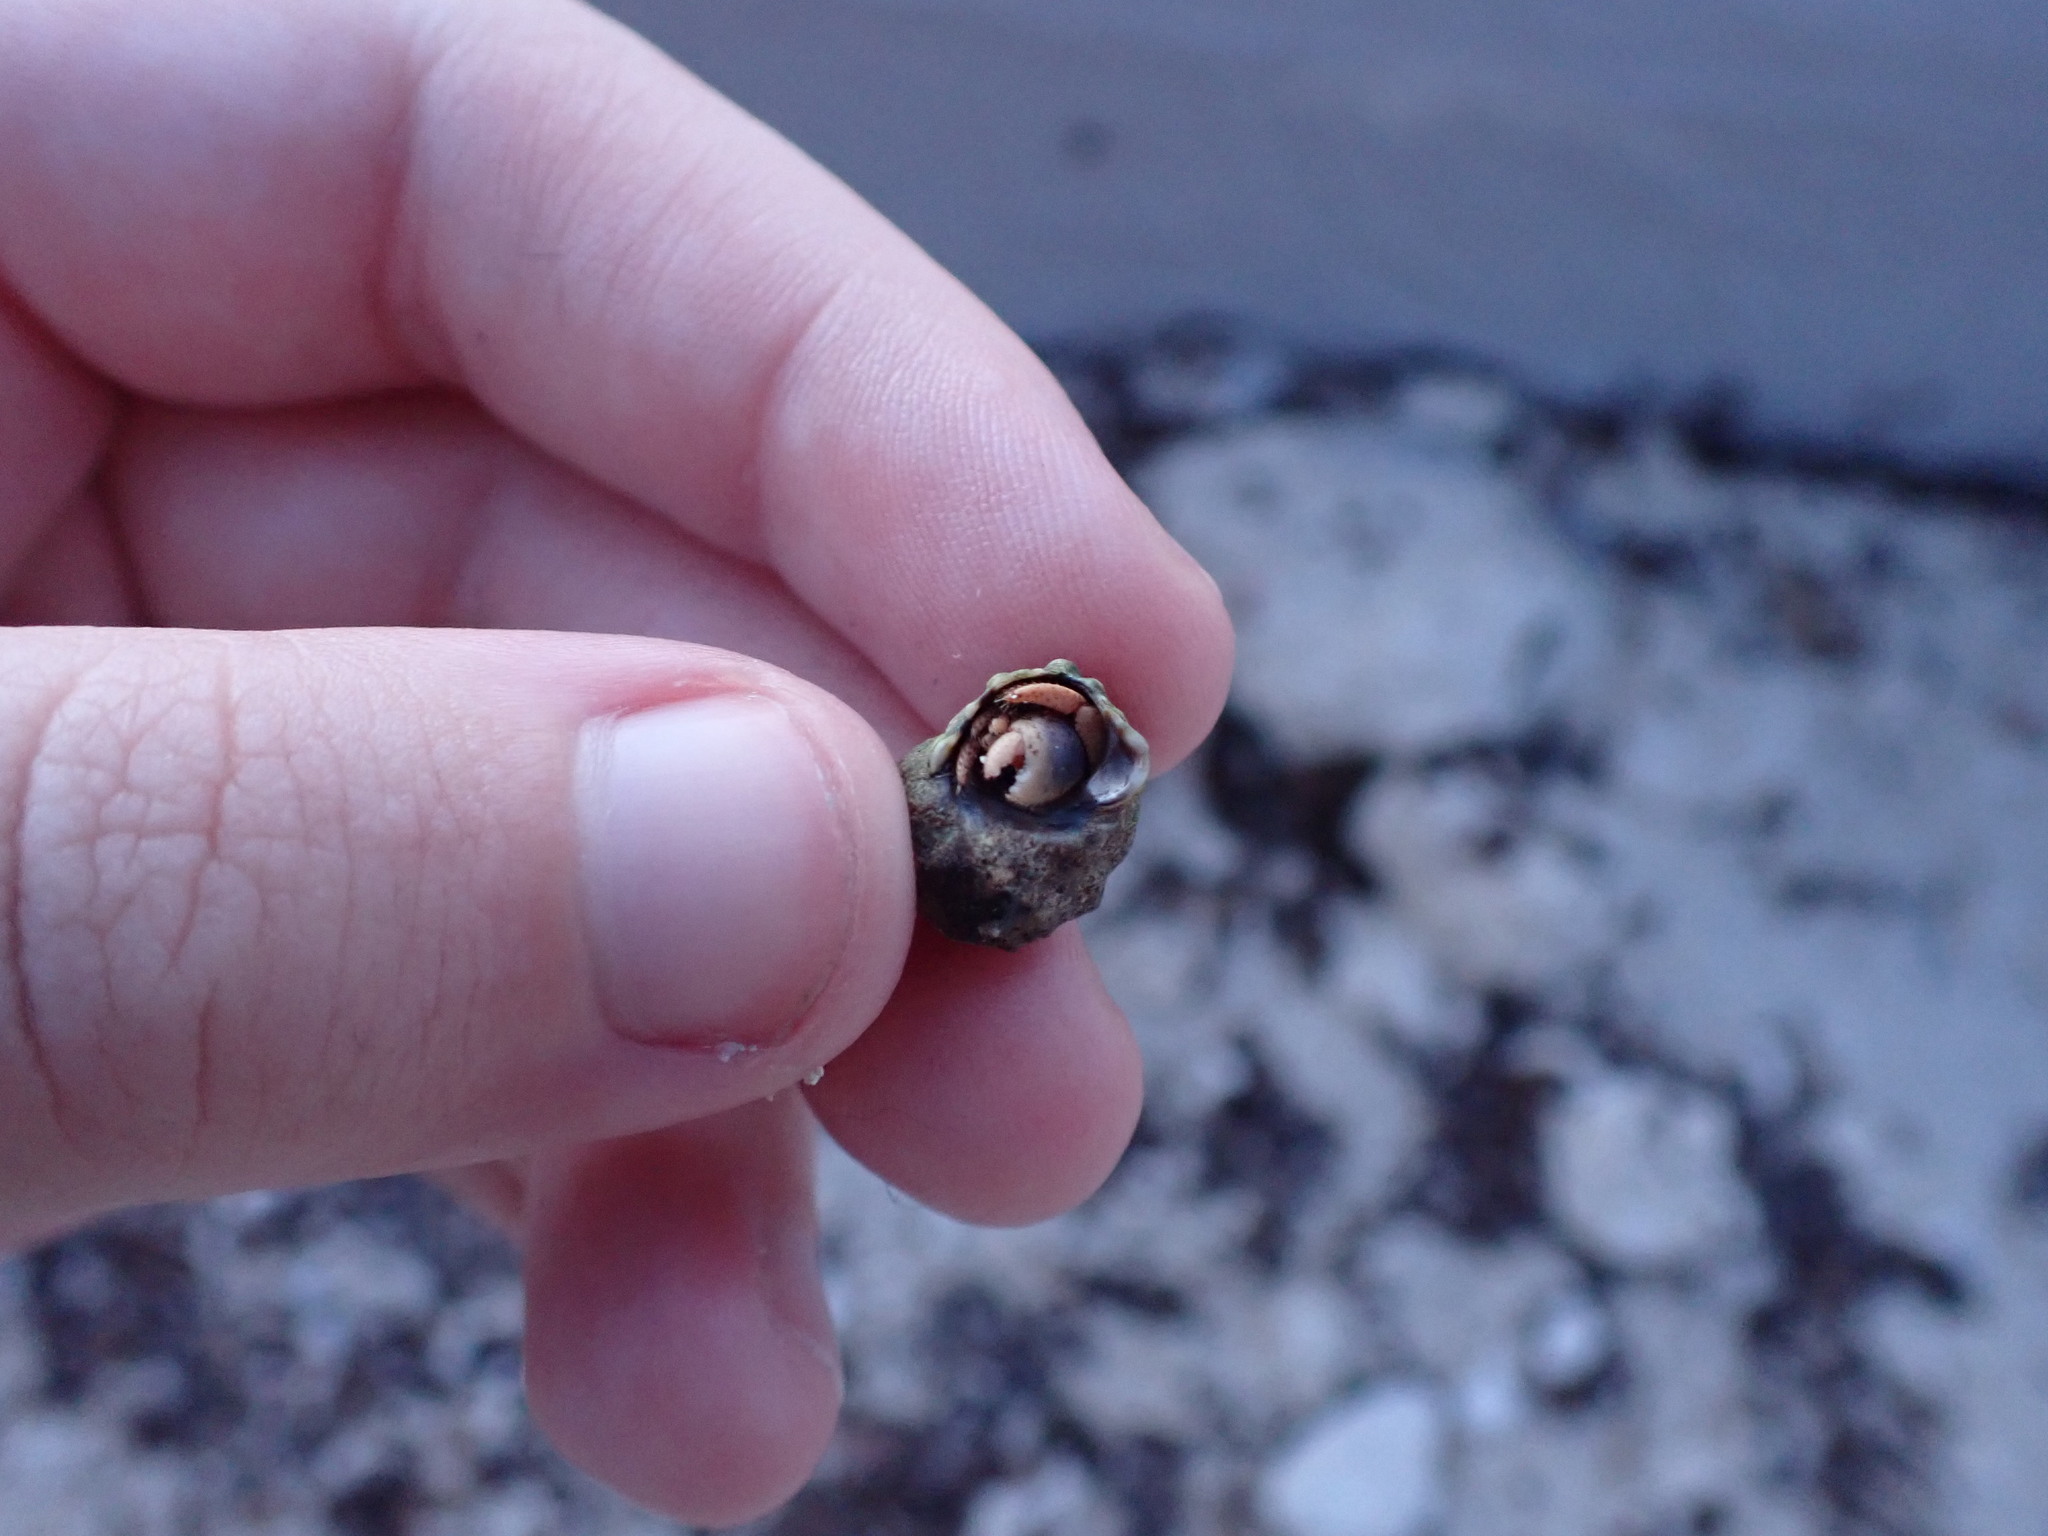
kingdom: Animalia
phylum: Arthropoda
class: Malacostraca
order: Decapoda
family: Coenobitidae
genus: Coenobita
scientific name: Coenobita clypeatus
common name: Caribbean hermit crab
